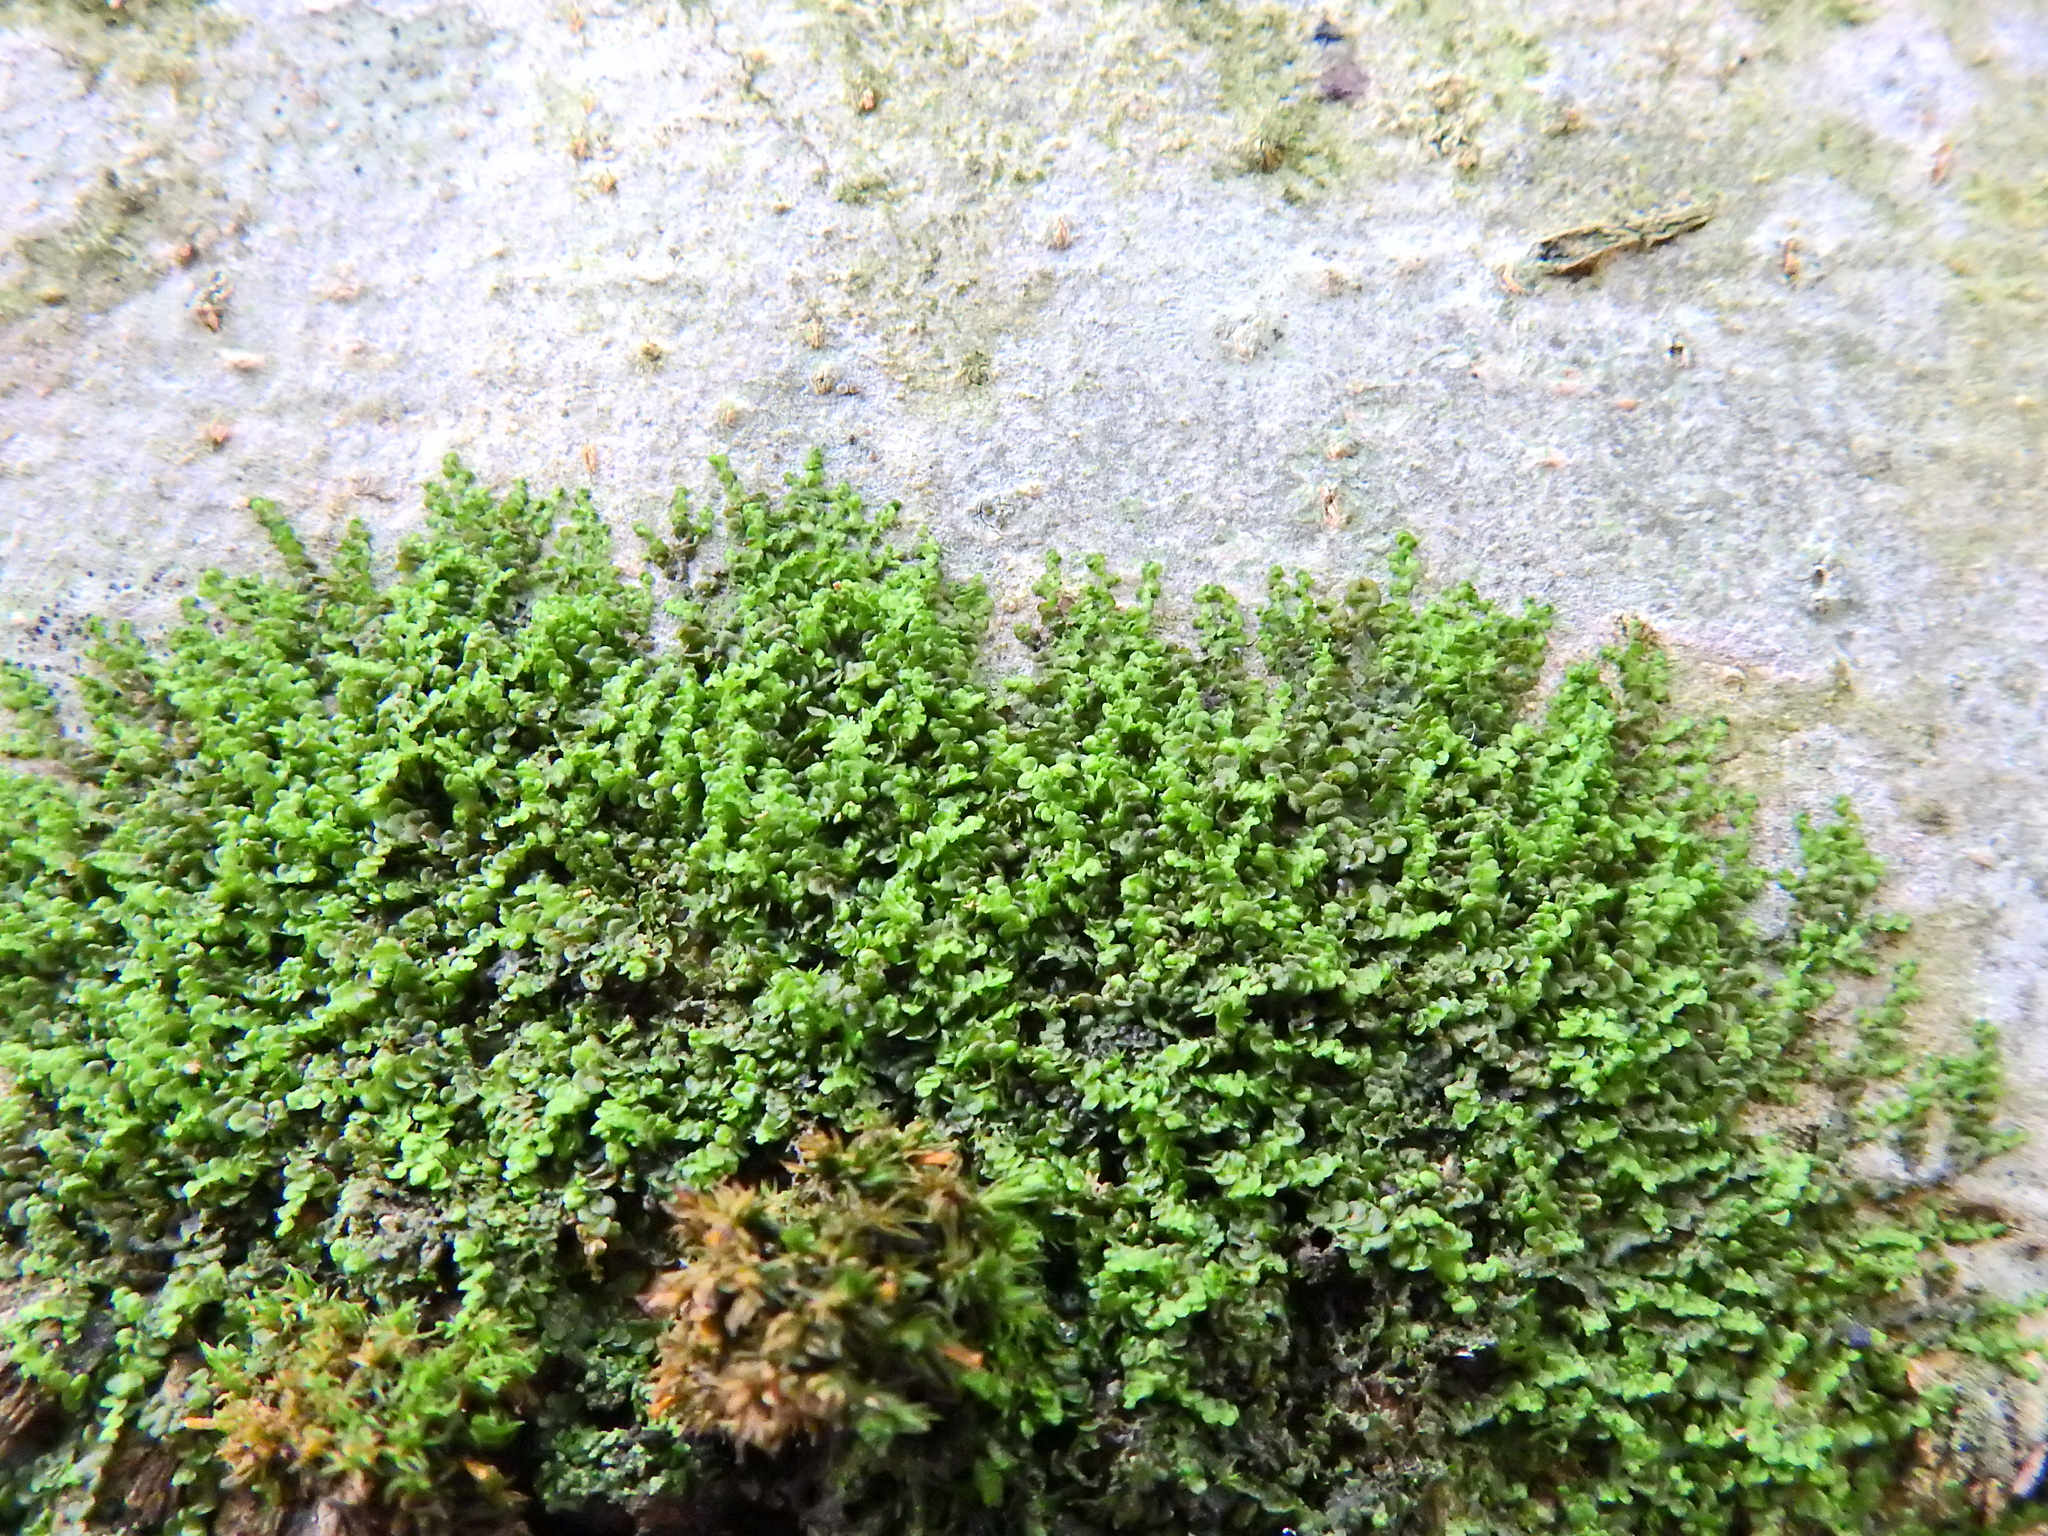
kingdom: Plantae
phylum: Marchantiophyta
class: Jungermanniopsida
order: Porellales
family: Frullaniaceae
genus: Frullania
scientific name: Frullania dilatata
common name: Dilated scalewort
